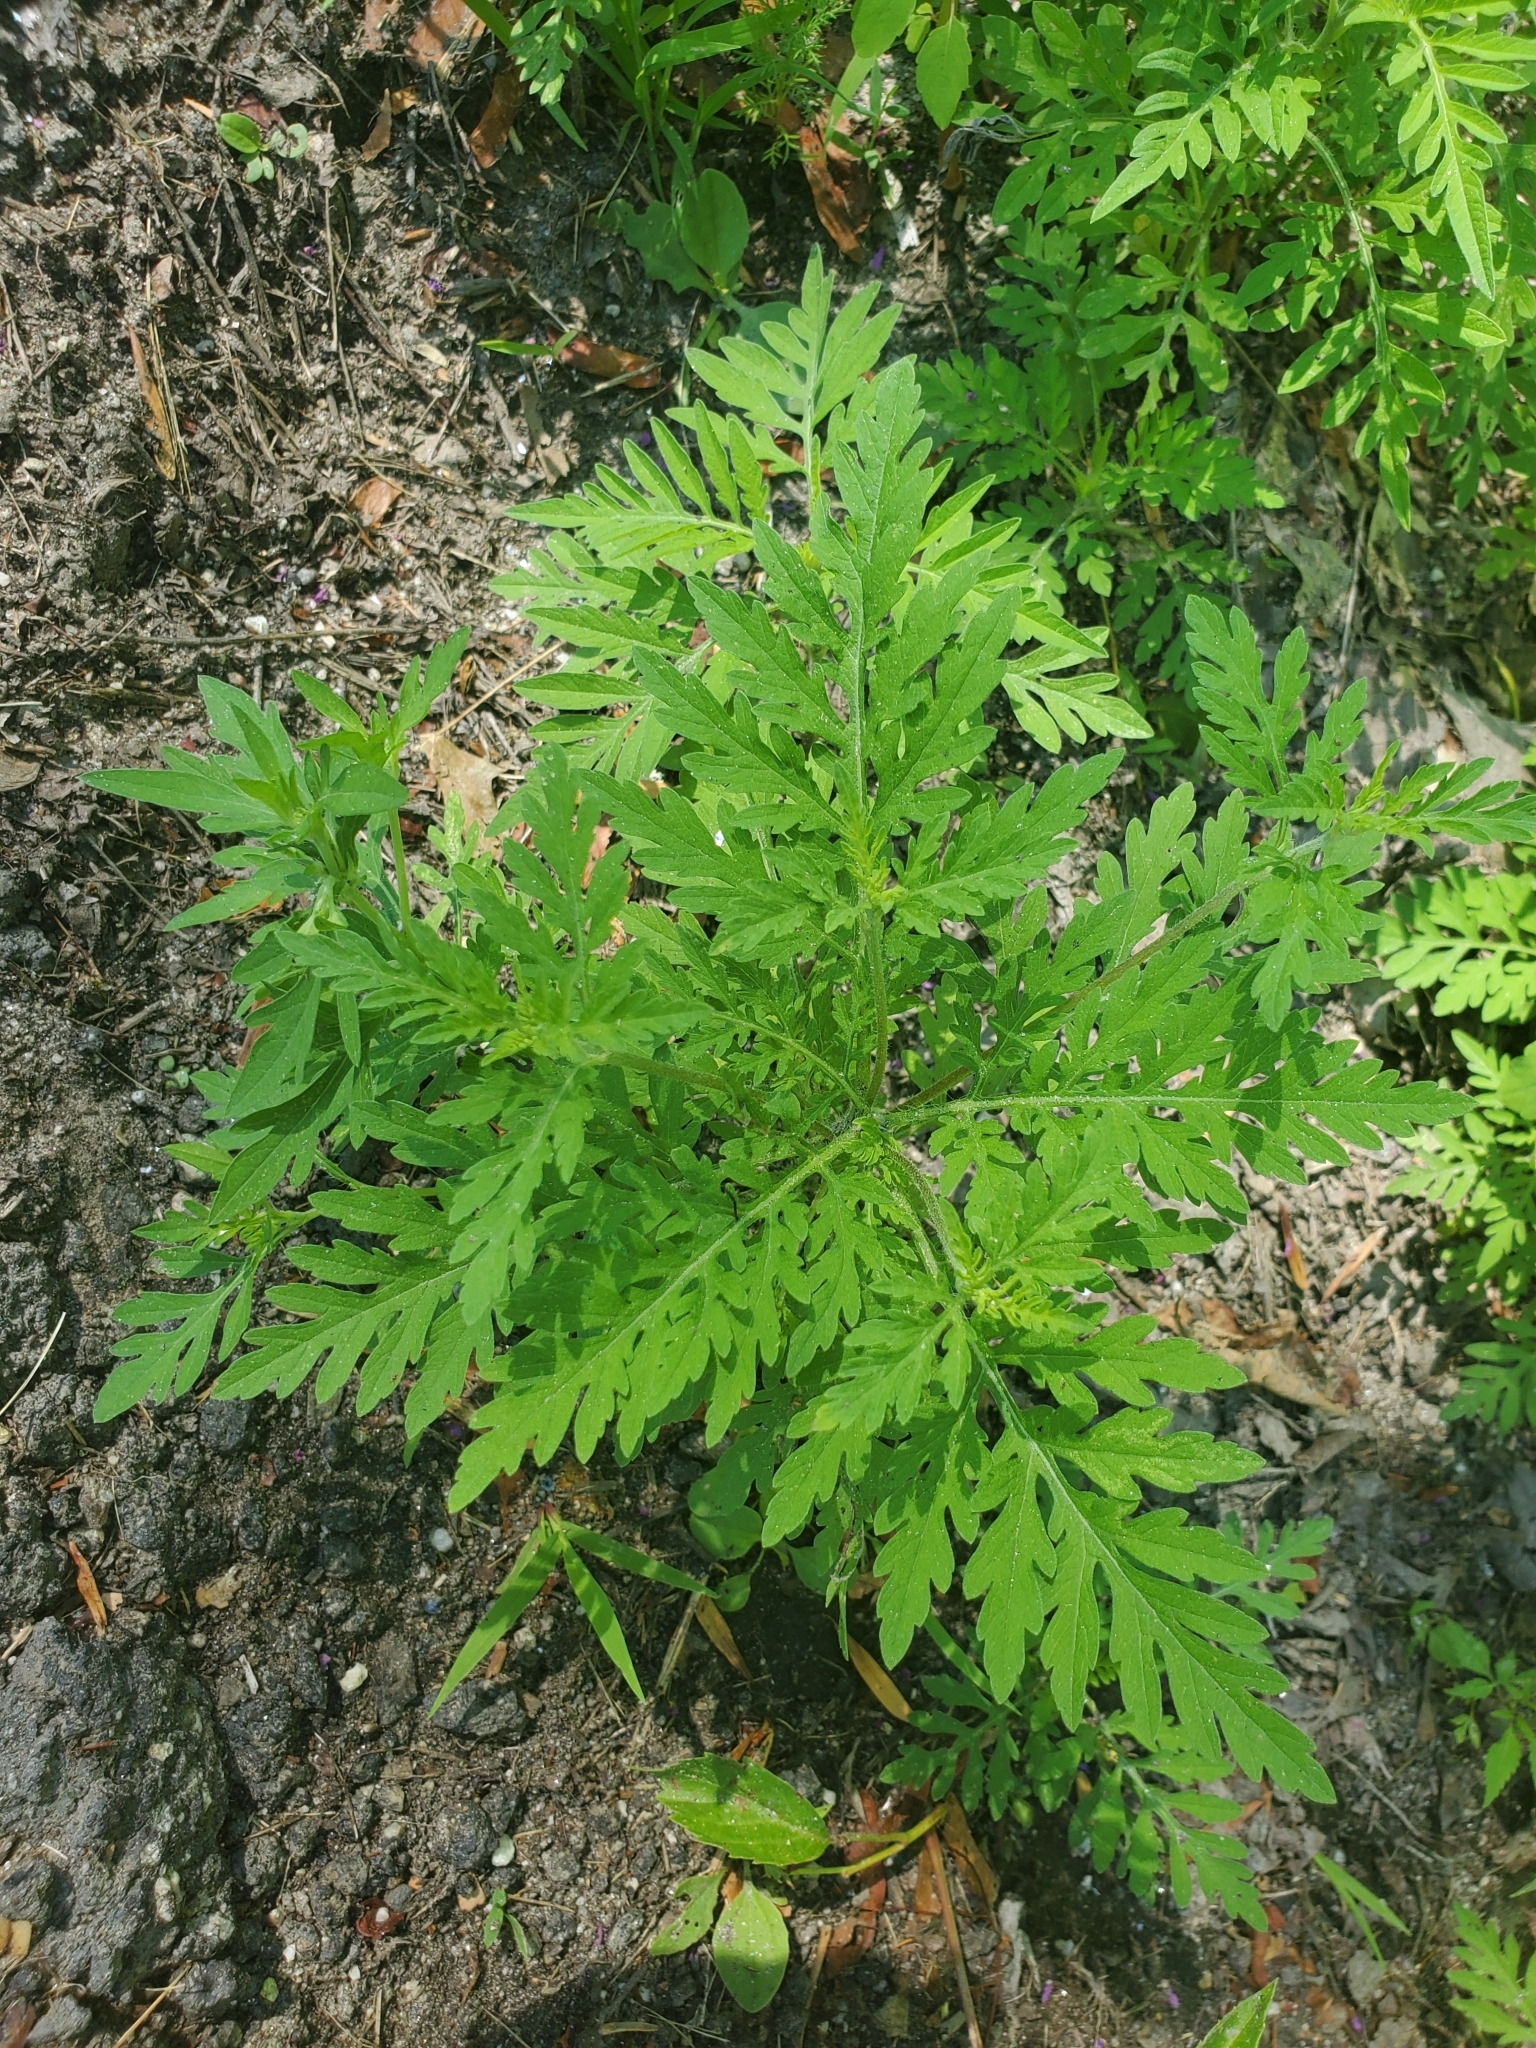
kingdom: Plantae
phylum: Tracheophyta
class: Magnoliopsida
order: Asterales
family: Asteraceae
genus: Ambrosia
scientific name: Ambrosia artemisiifolia
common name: Annual ragweed
